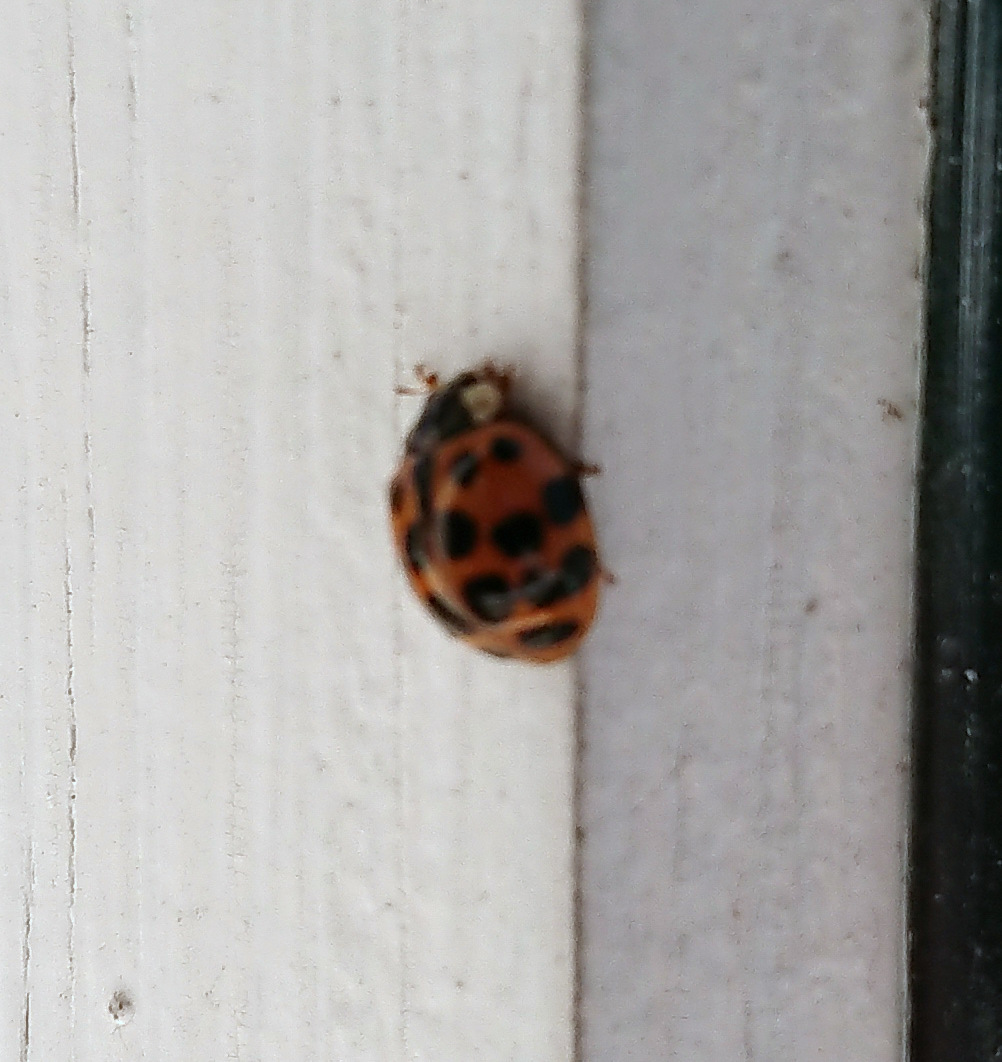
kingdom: Animalia
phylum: Arthropoda
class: Insecta
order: Coleoptera
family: Coccinellidae
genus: Harmonia
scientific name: Harmonia axyridis
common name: Harlequin ladybird
